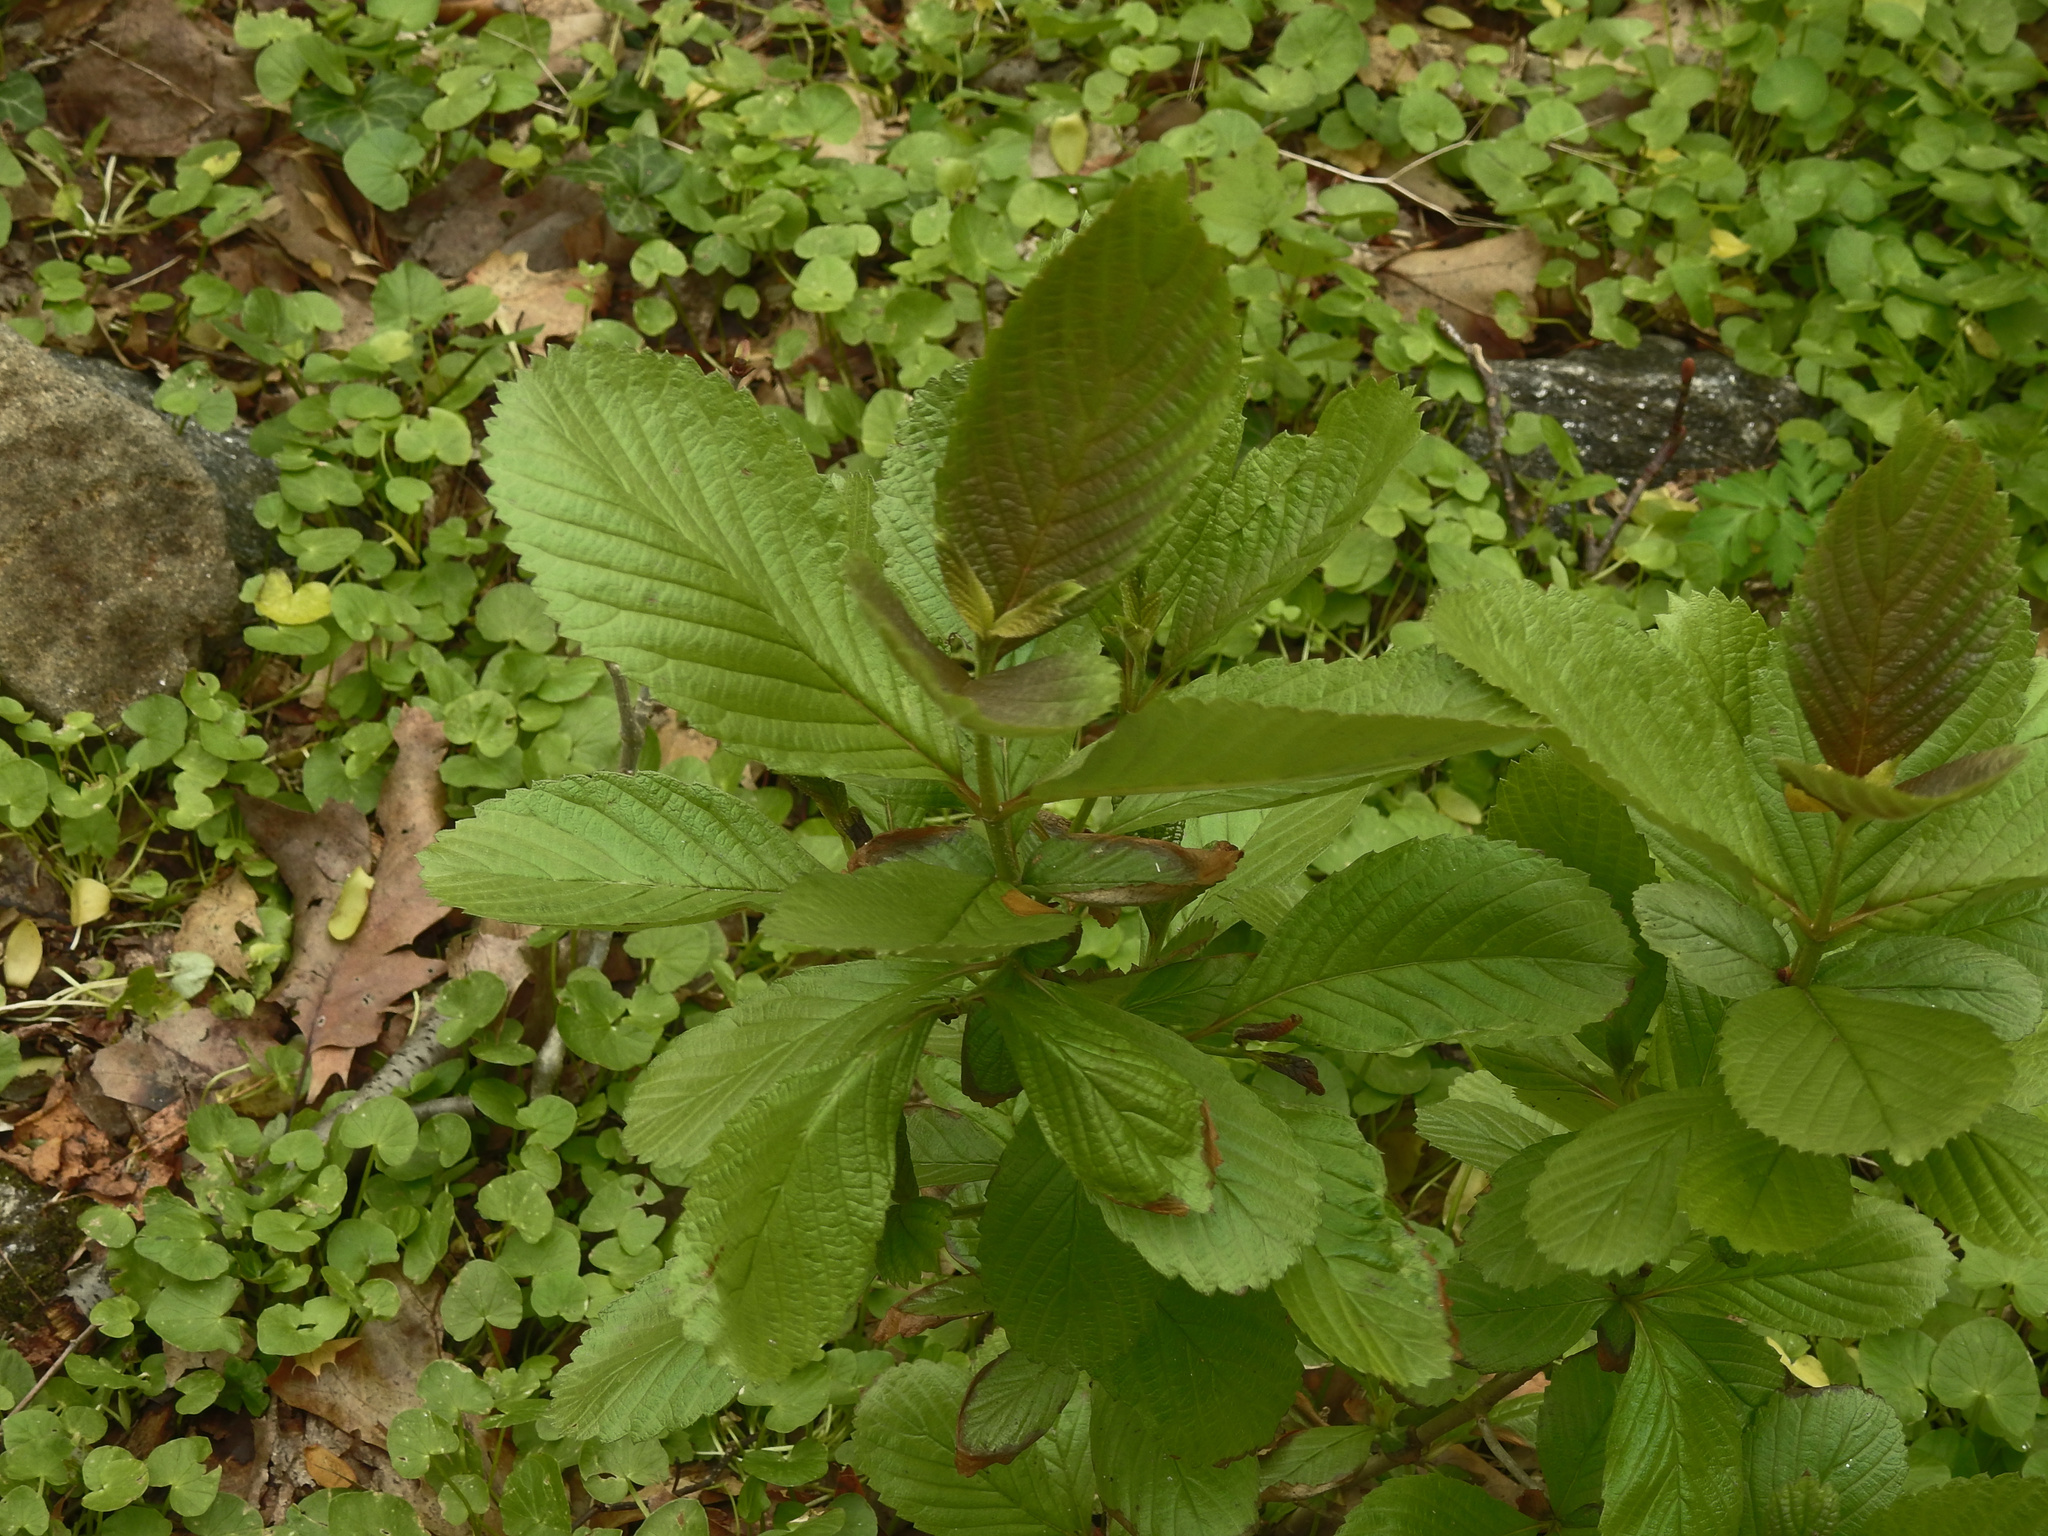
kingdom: Plantae
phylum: Tracheophyta
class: Magnoliopsida
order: Dipsacales
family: Viburnaceae
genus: Viburnum
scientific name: Viburnum sieboldii
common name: Siebold's arrowwood
